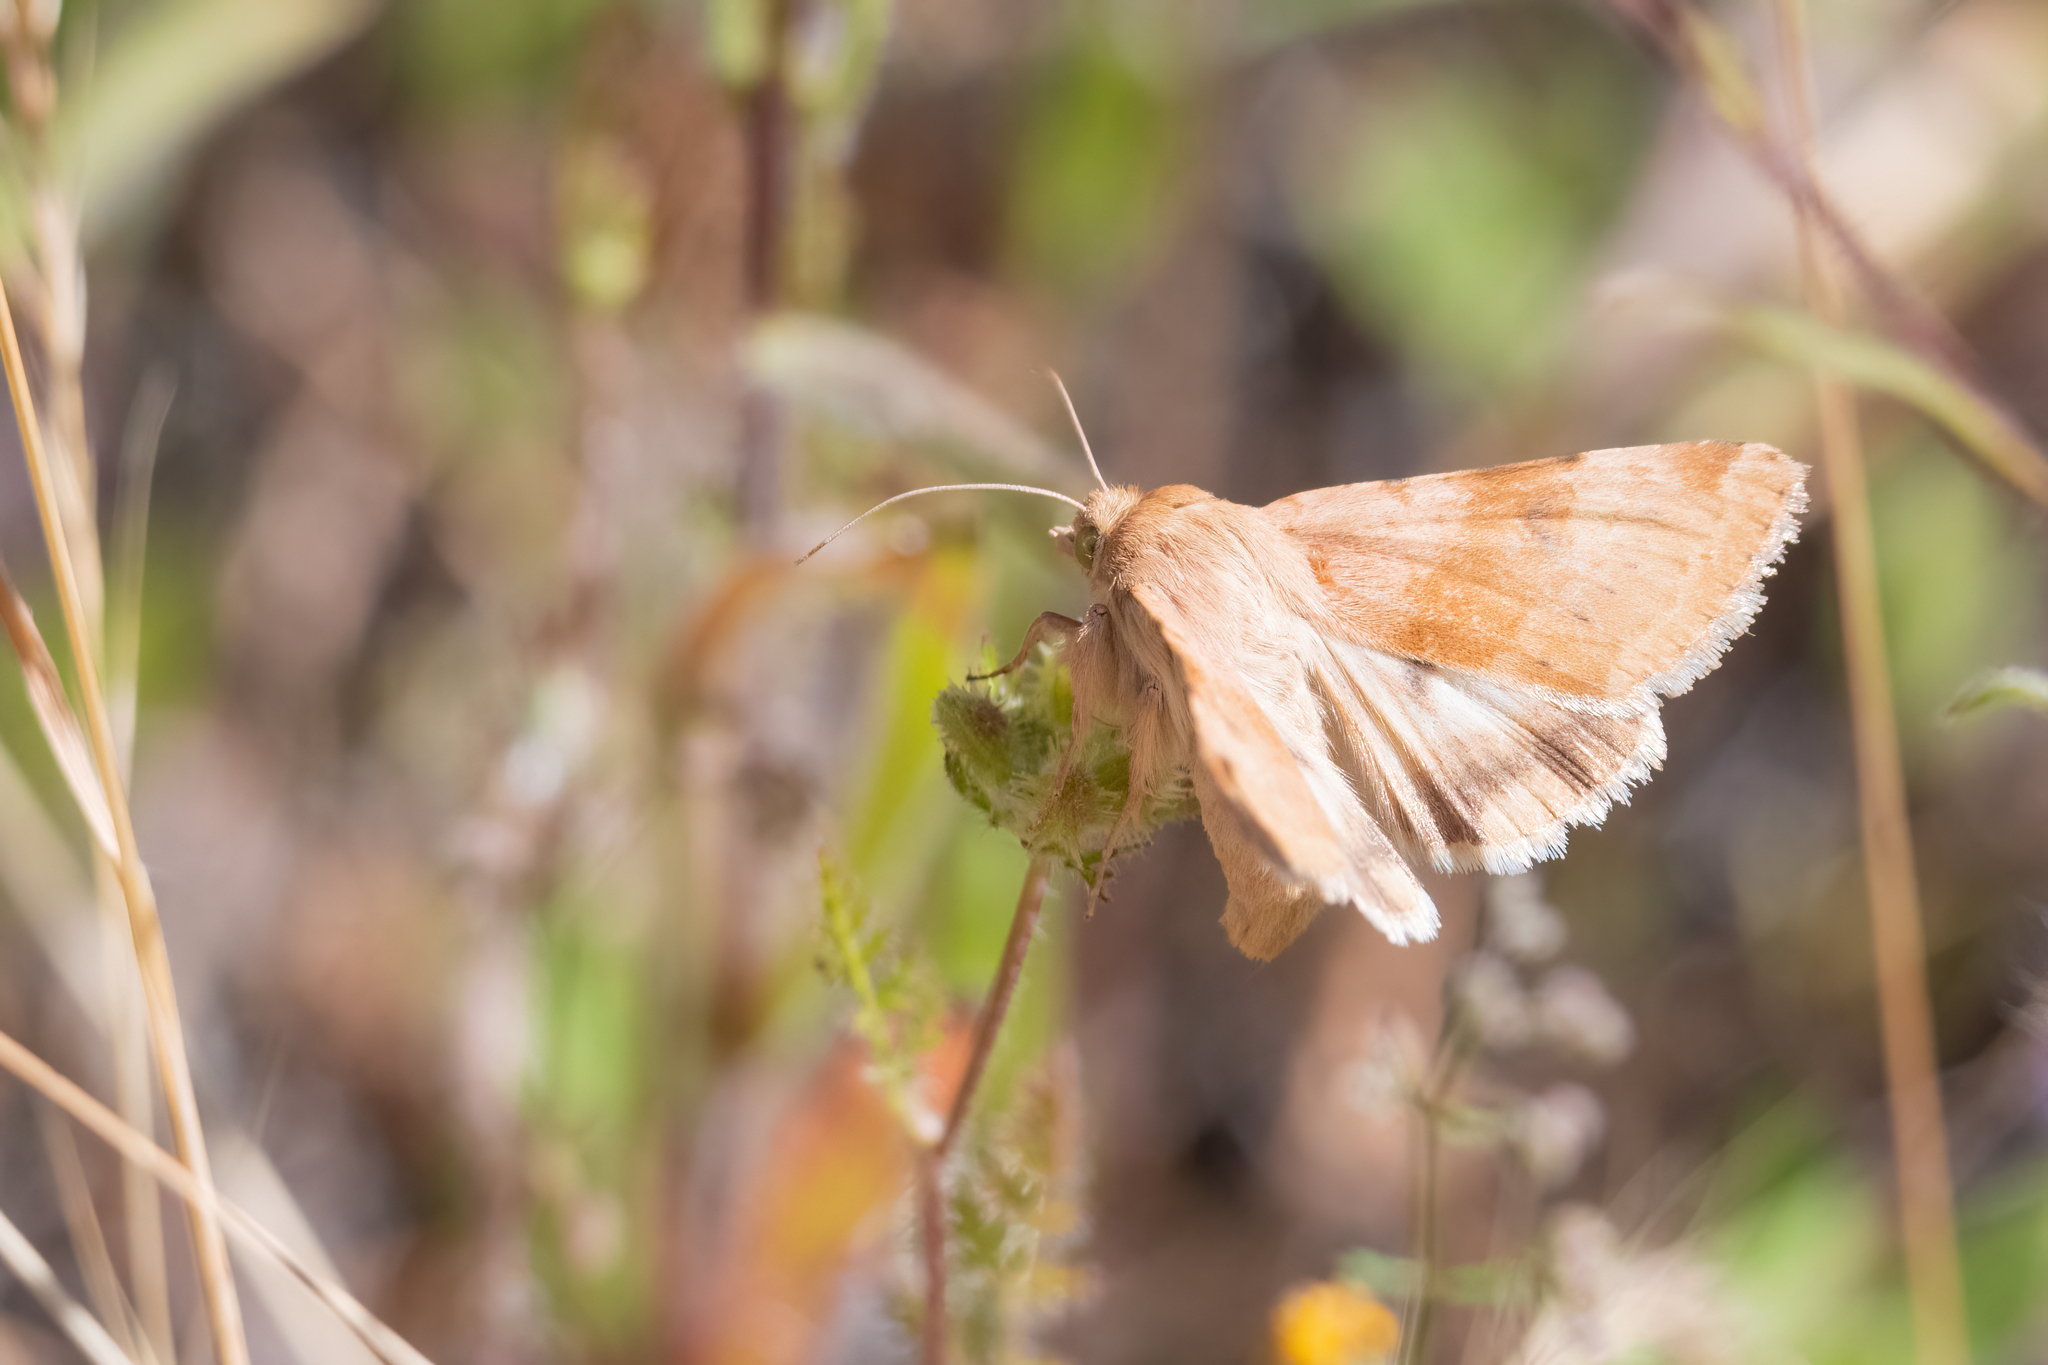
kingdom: Animalia
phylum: Arthropoda
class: Insecta
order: Lepidoptera
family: Noctuidae
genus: Heliothis
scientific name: Heliothis phloxiphaga
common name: Darker spotted straw moth
